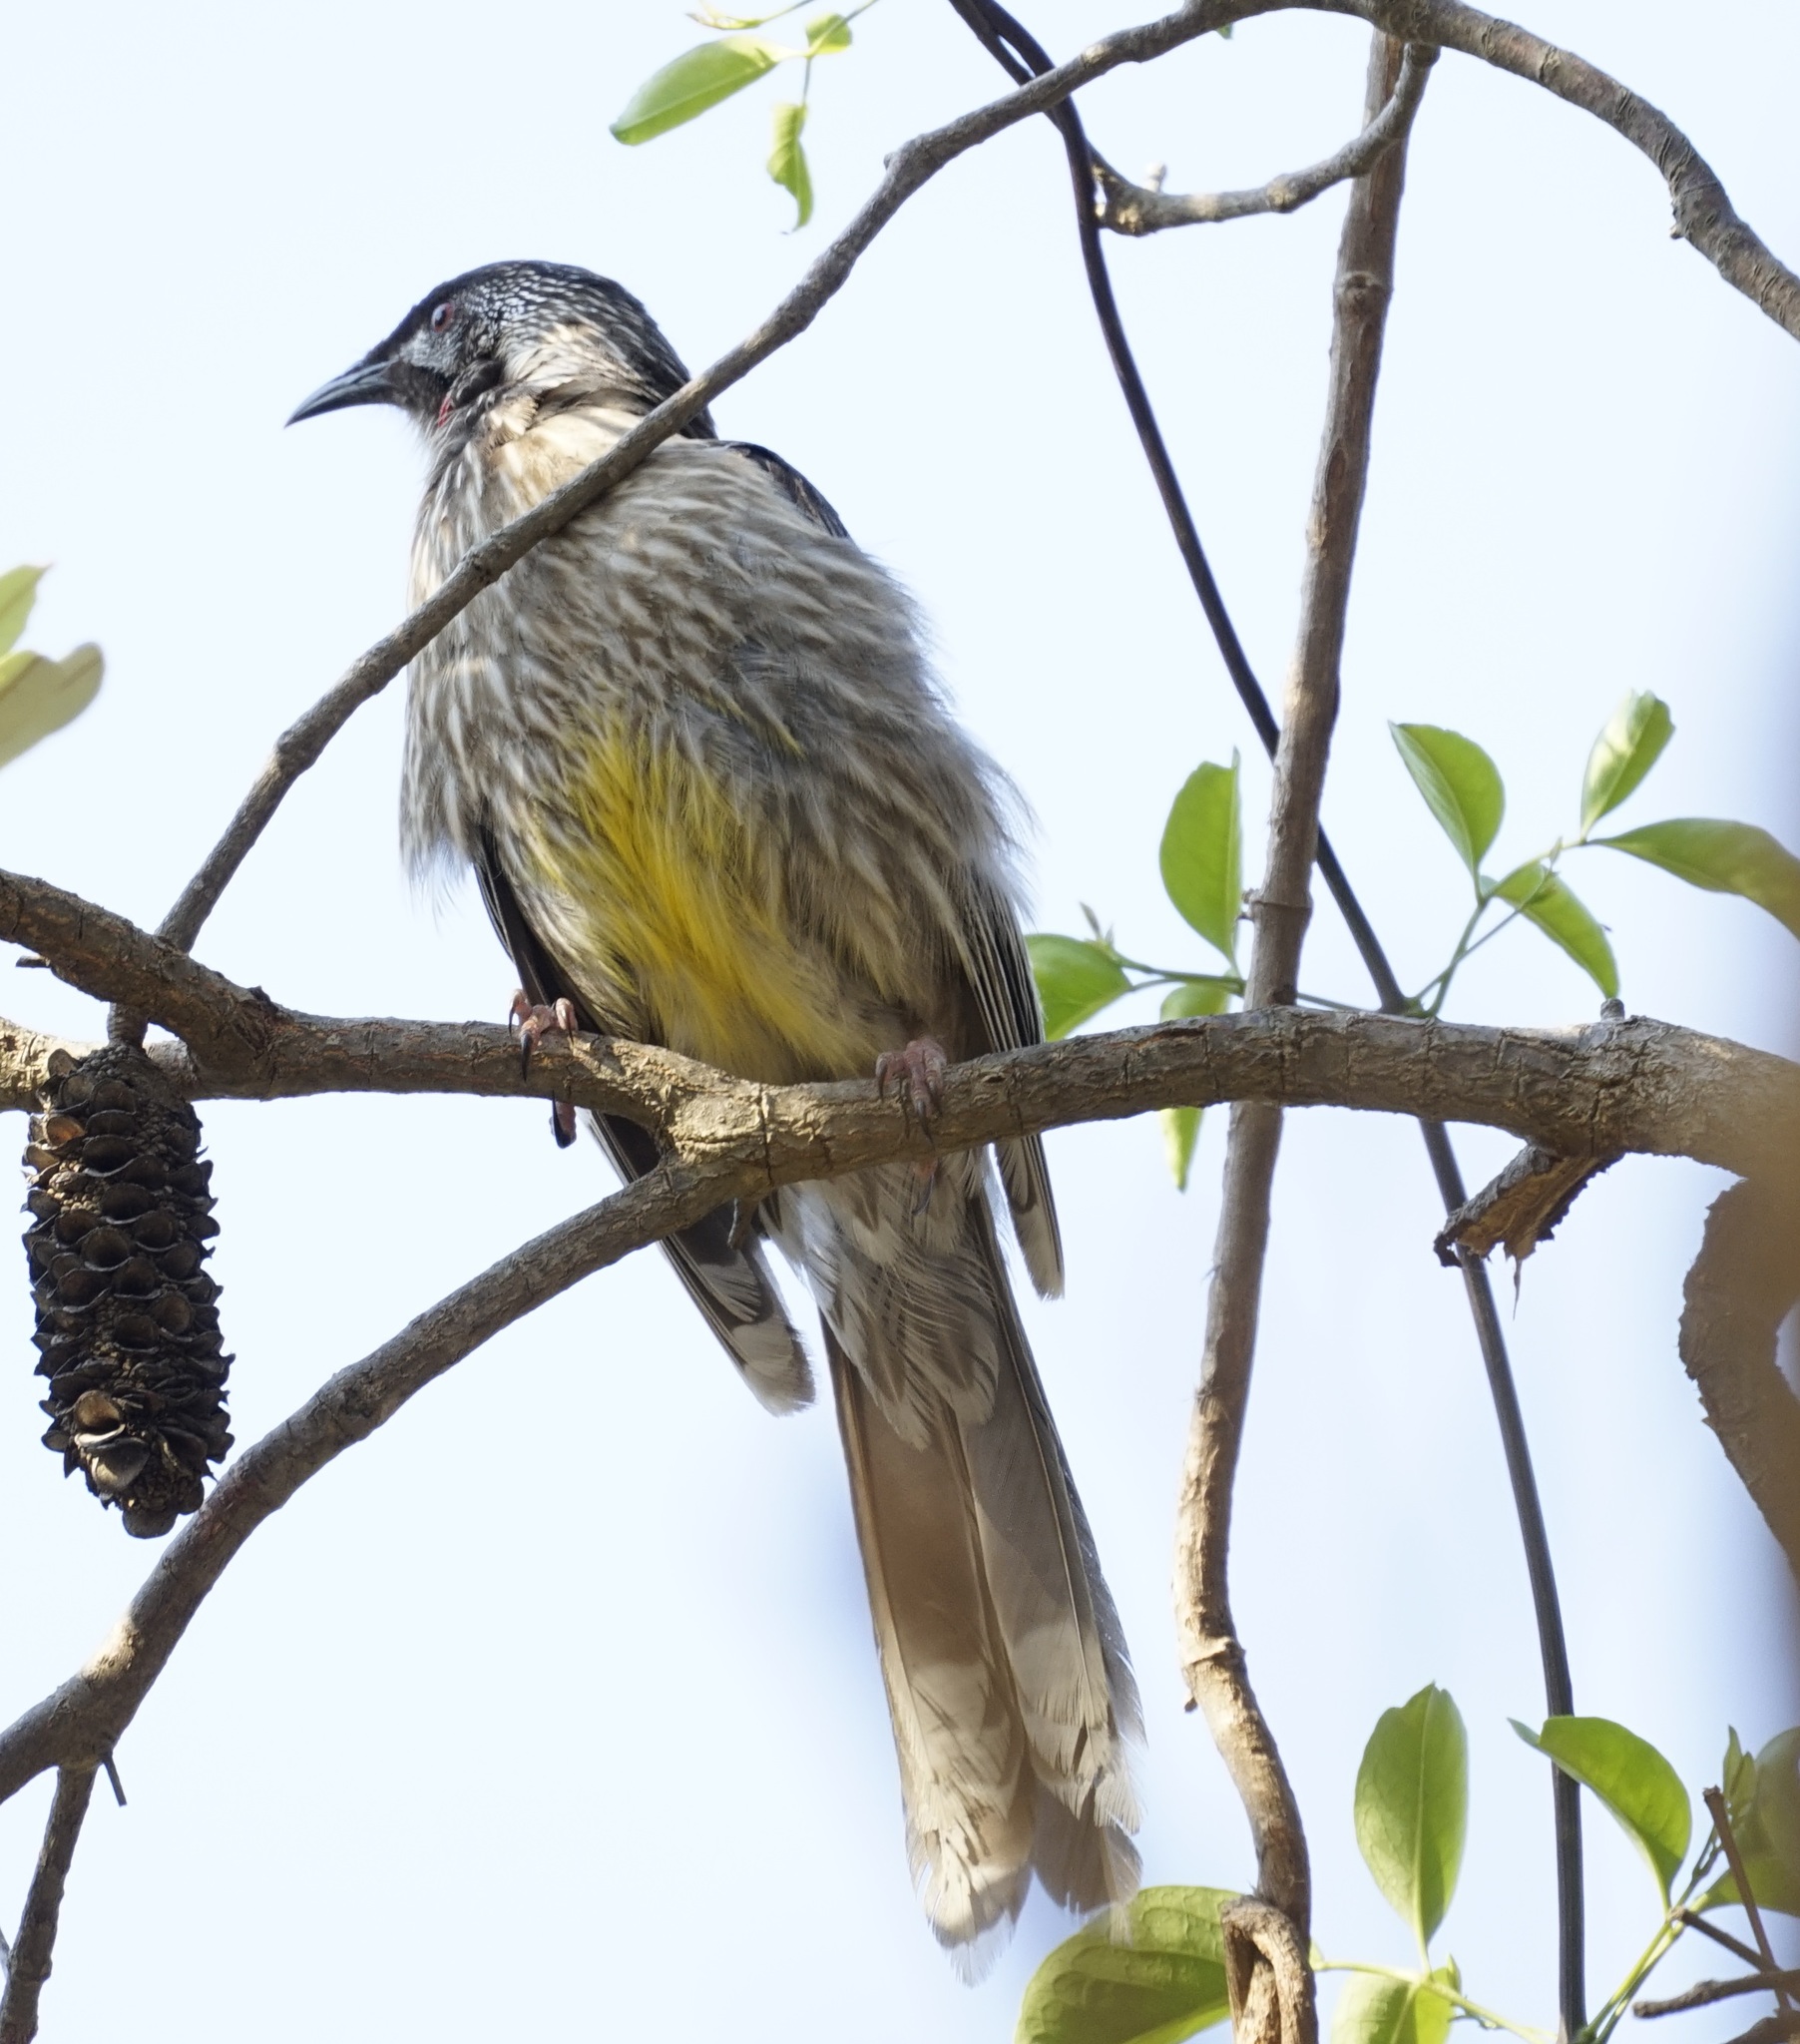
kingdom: Animalia
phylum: Chordata
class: Aves
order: Passeriformes
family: Meliphagidae
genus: Anthochaera
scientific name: Anthochaera carunculata
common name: Red wattlebird
